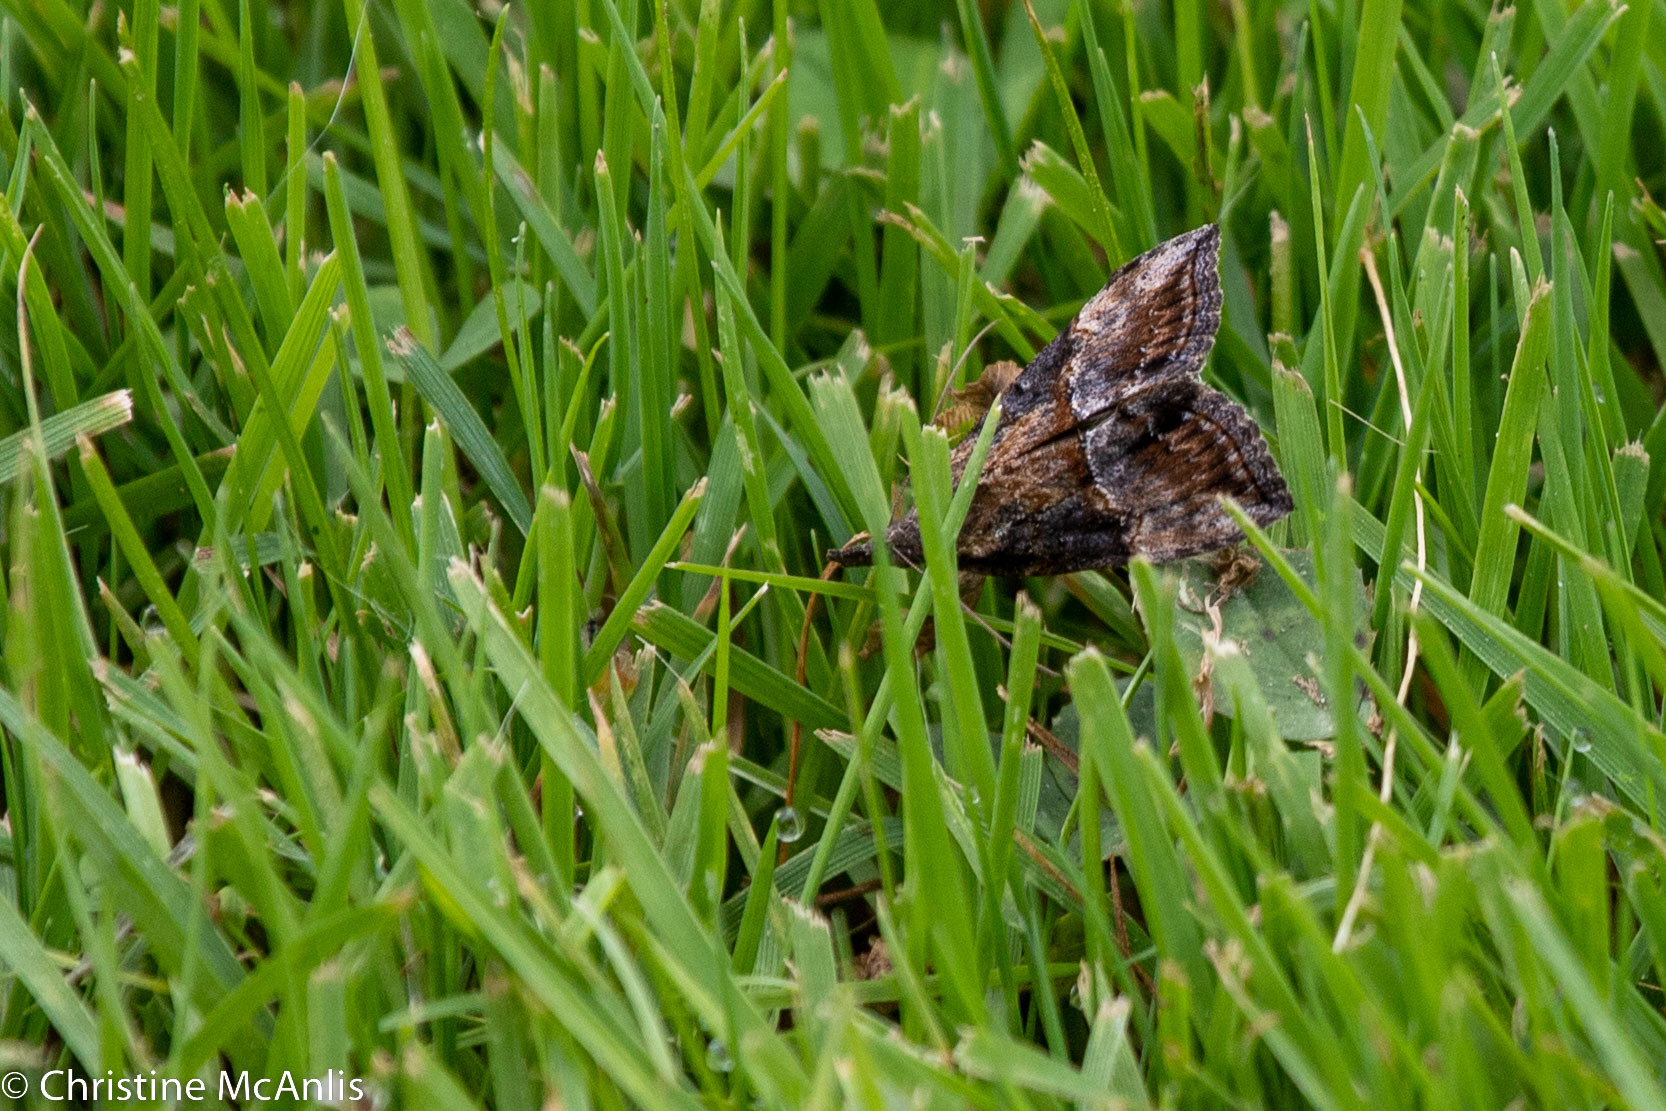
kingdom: Animalia
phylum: Arthropoda
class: Insecta
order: Lepidoptera
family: Erebidae
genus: Hypena
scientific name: Hypena scabra
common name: Green cloverworm
